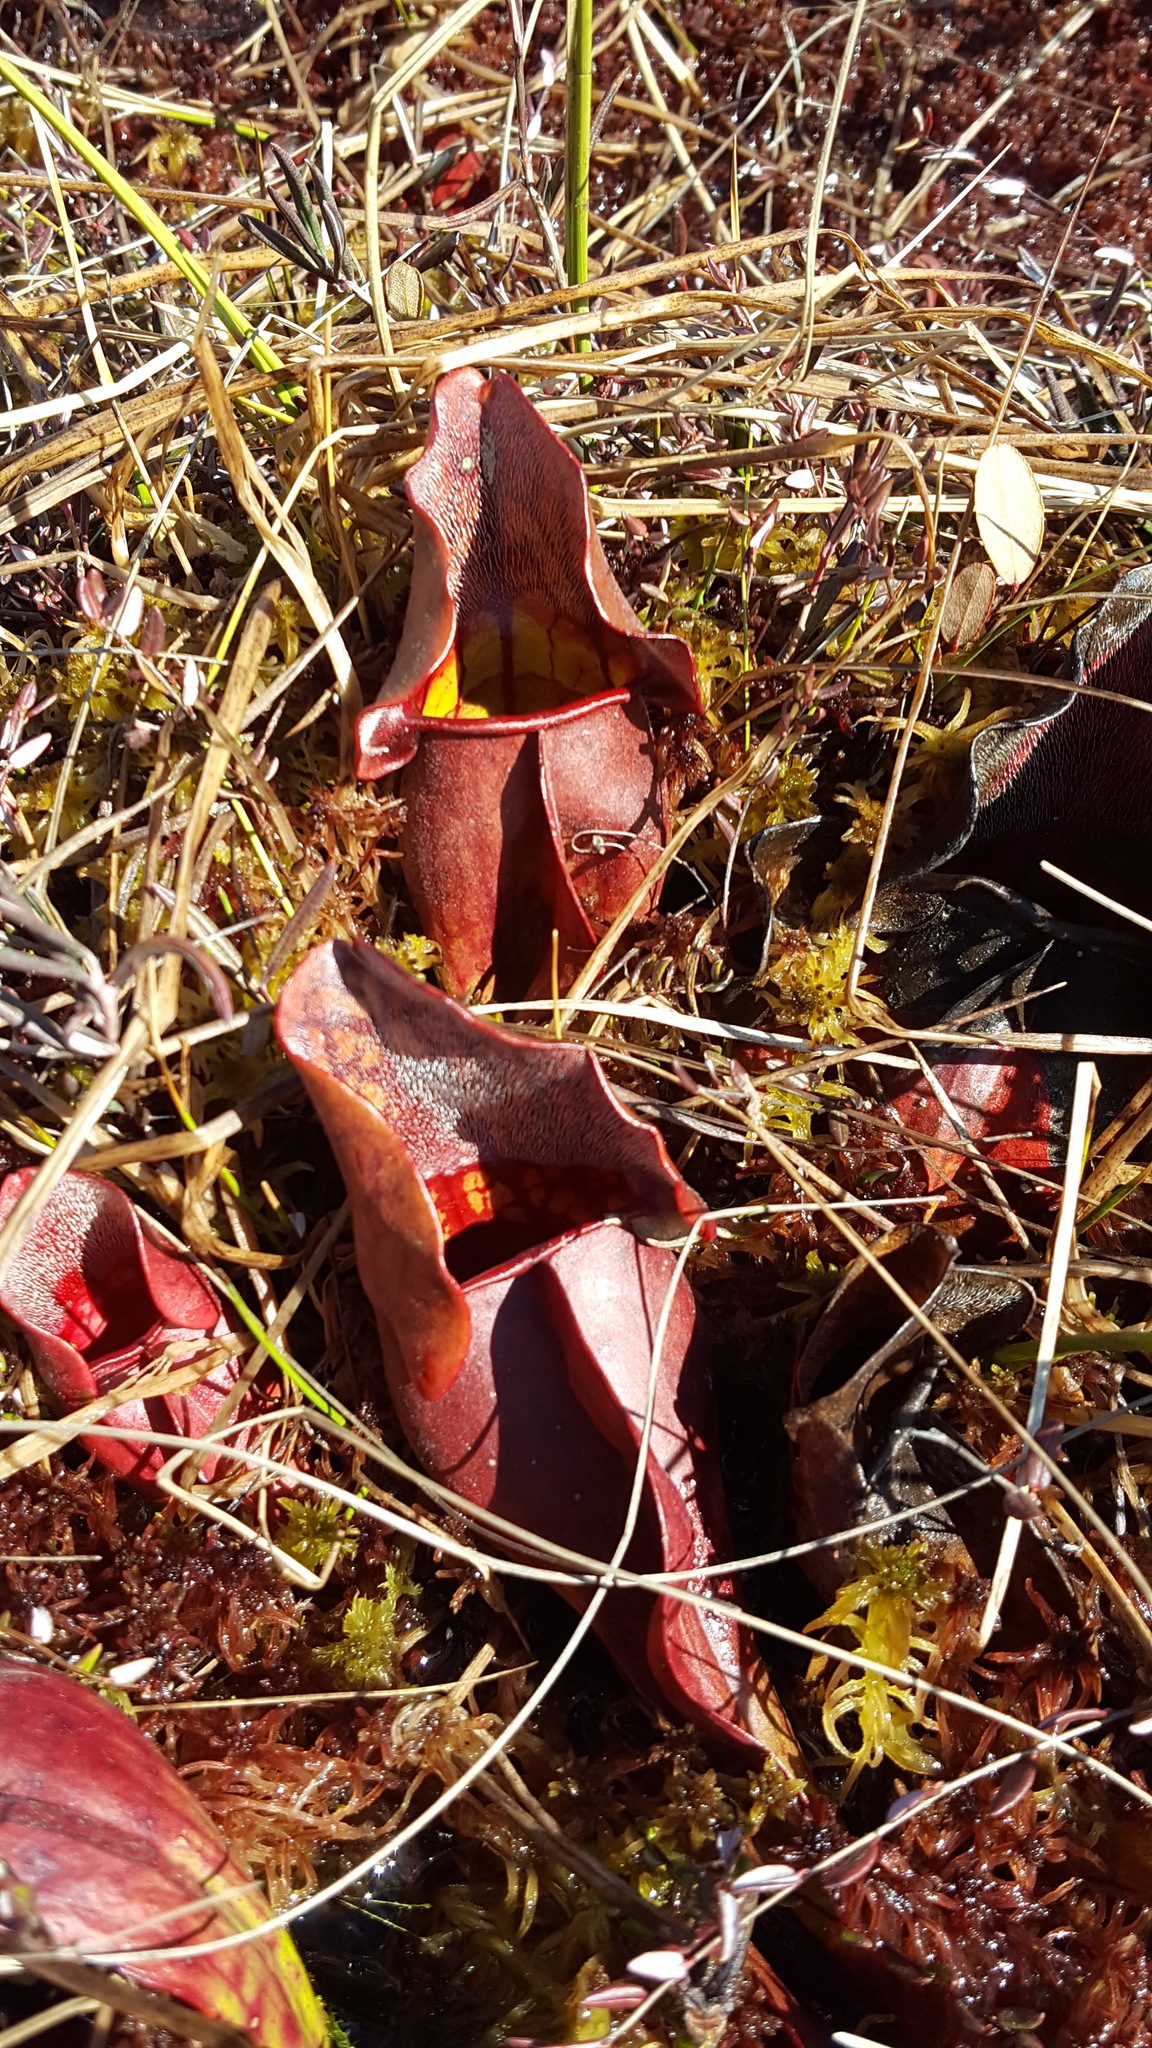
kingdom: Plantae
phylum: Tracheophyta
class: Magnoliopsida
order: Ericales
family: Sarraceniaceae
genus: Sarracenia
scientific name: Sarracenia purpurea
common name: Pitcherplant
